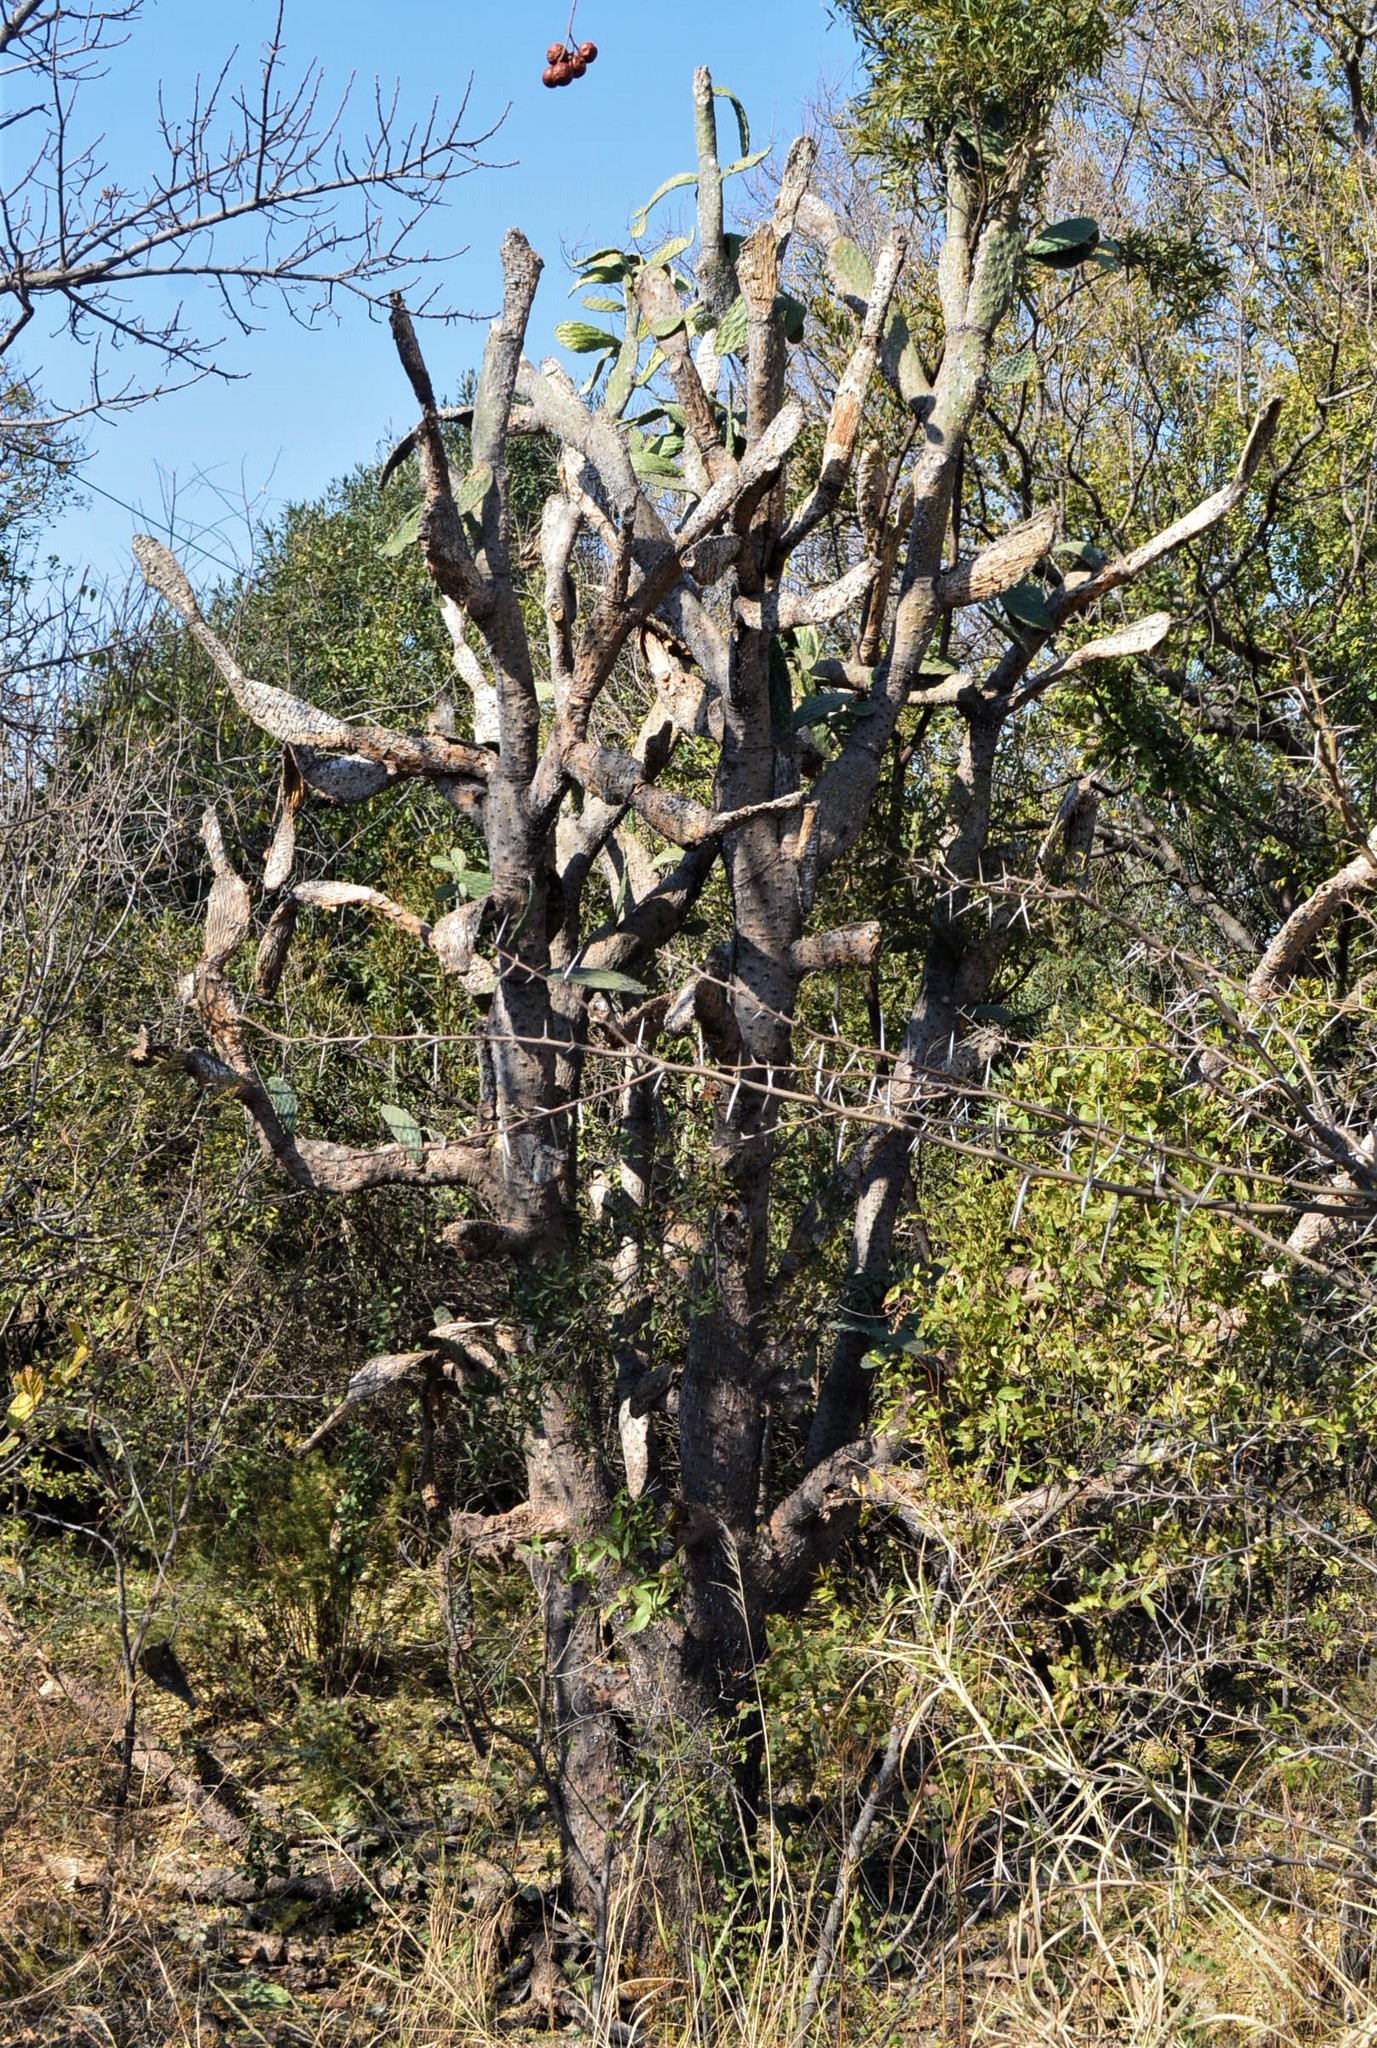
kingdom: Plantae
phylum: Tracheophyta
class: Magnoliopsida
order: Caryophyllales
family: Cactaceae
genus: Opuntia
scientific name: Opuntia tomentosa
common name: Woollyjoint pricklypear
